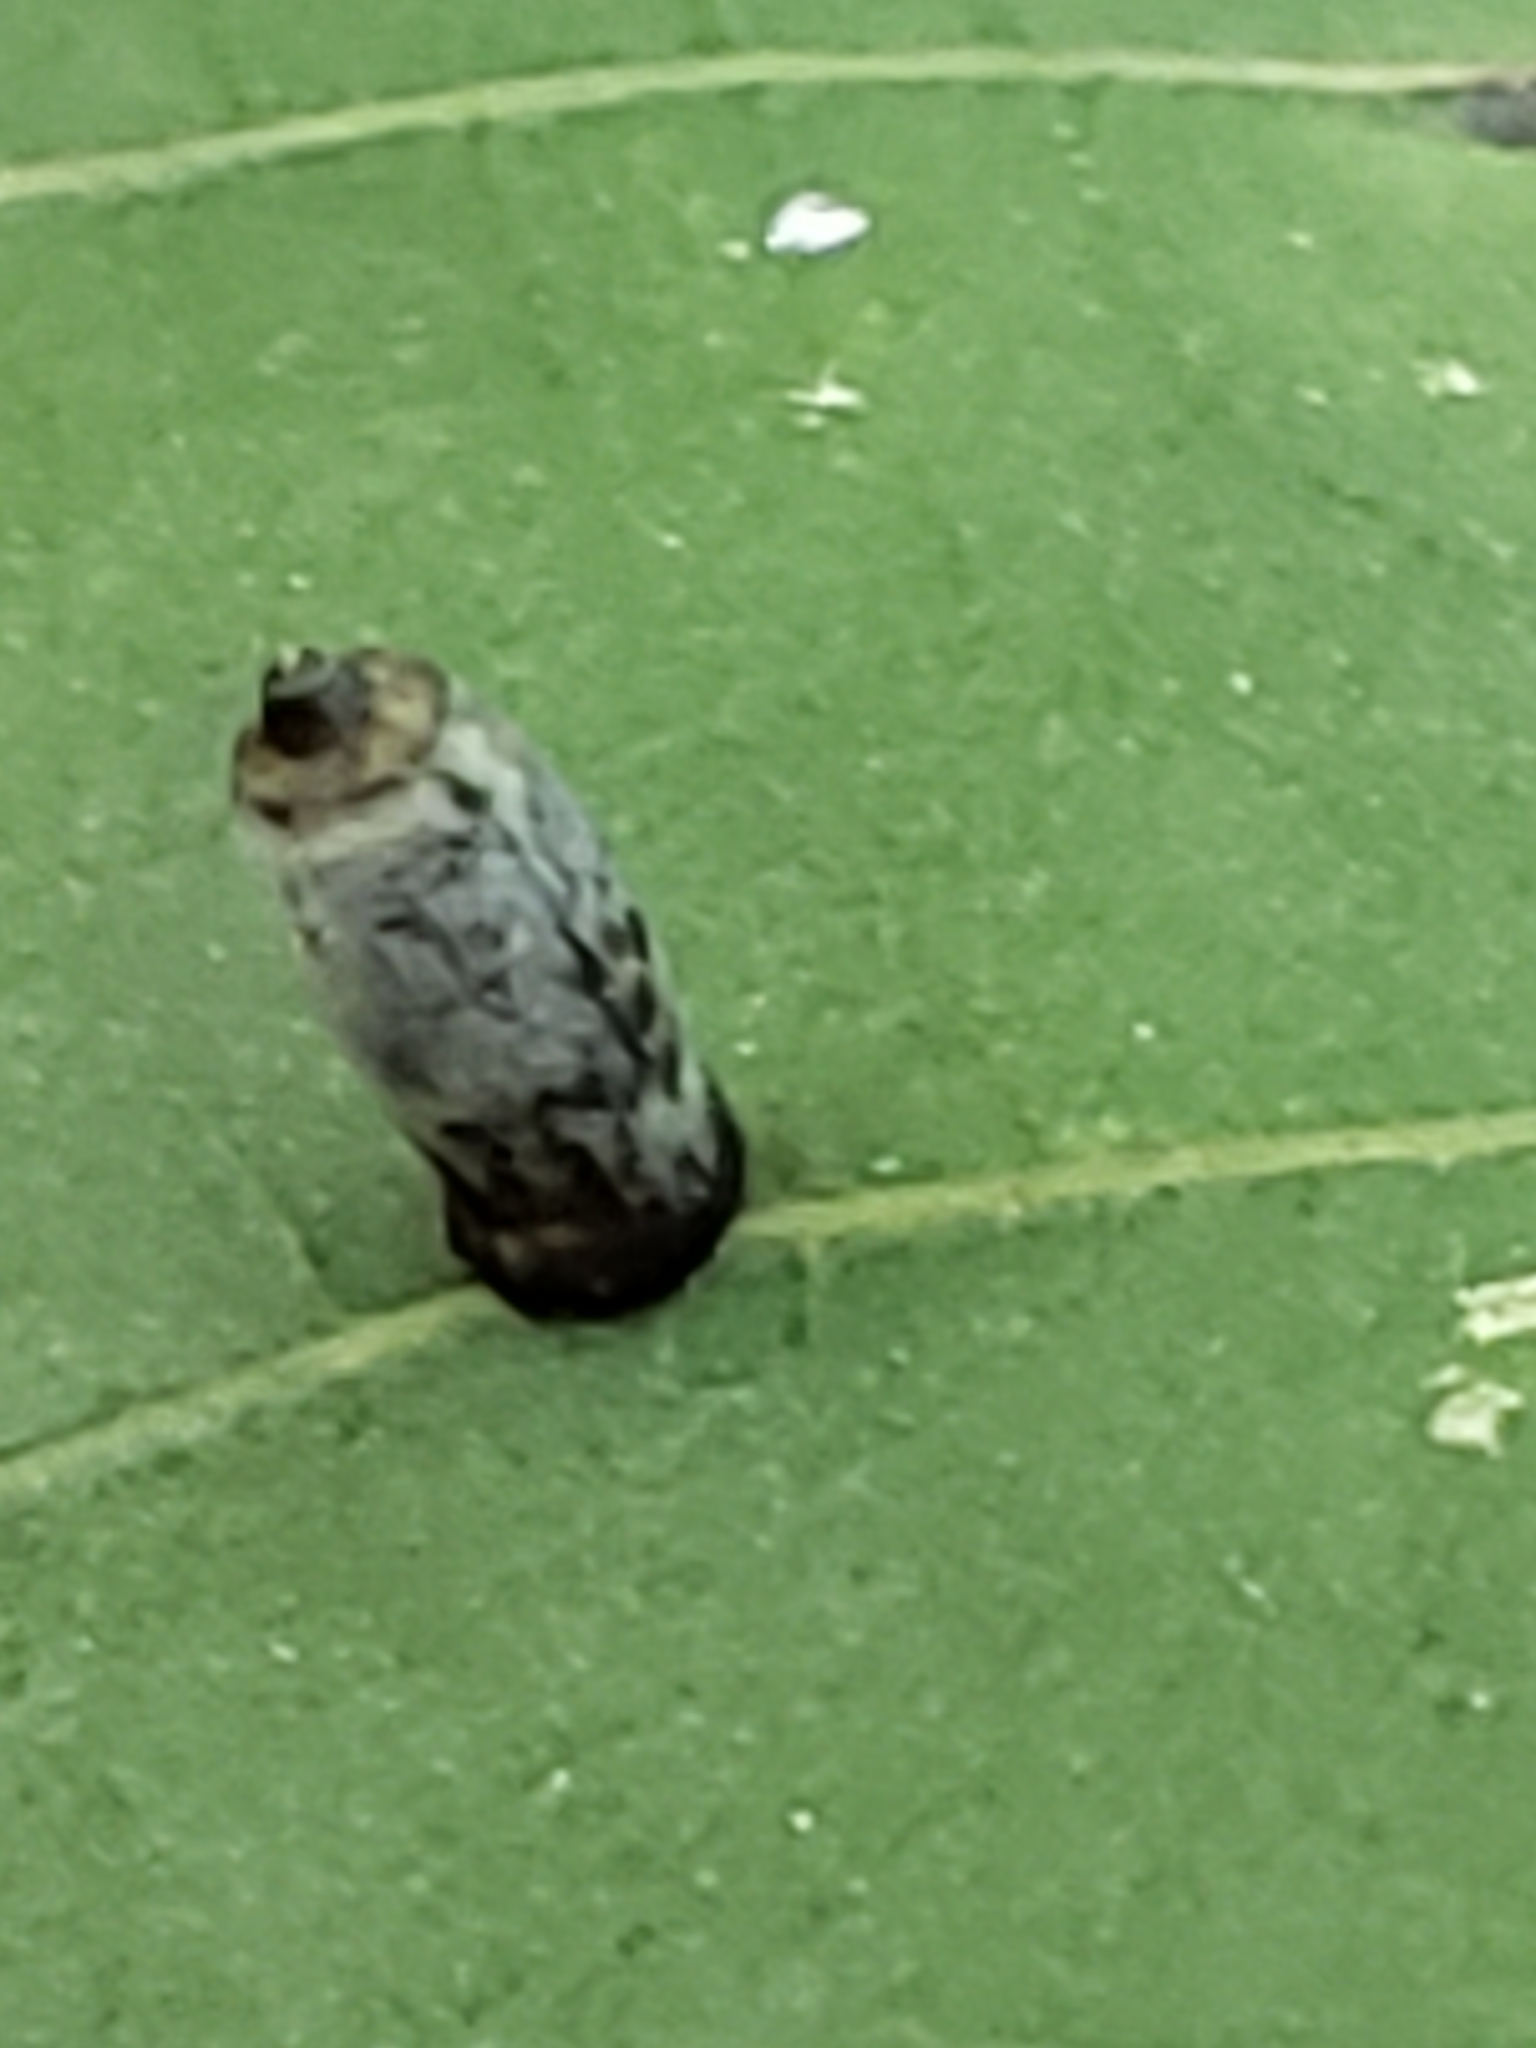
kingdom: Animalia
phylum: Arthropoda
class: Insecta
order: Diptera
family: Cecidomyiidae
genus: Caryomyia
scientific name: Caryomyia urnula
